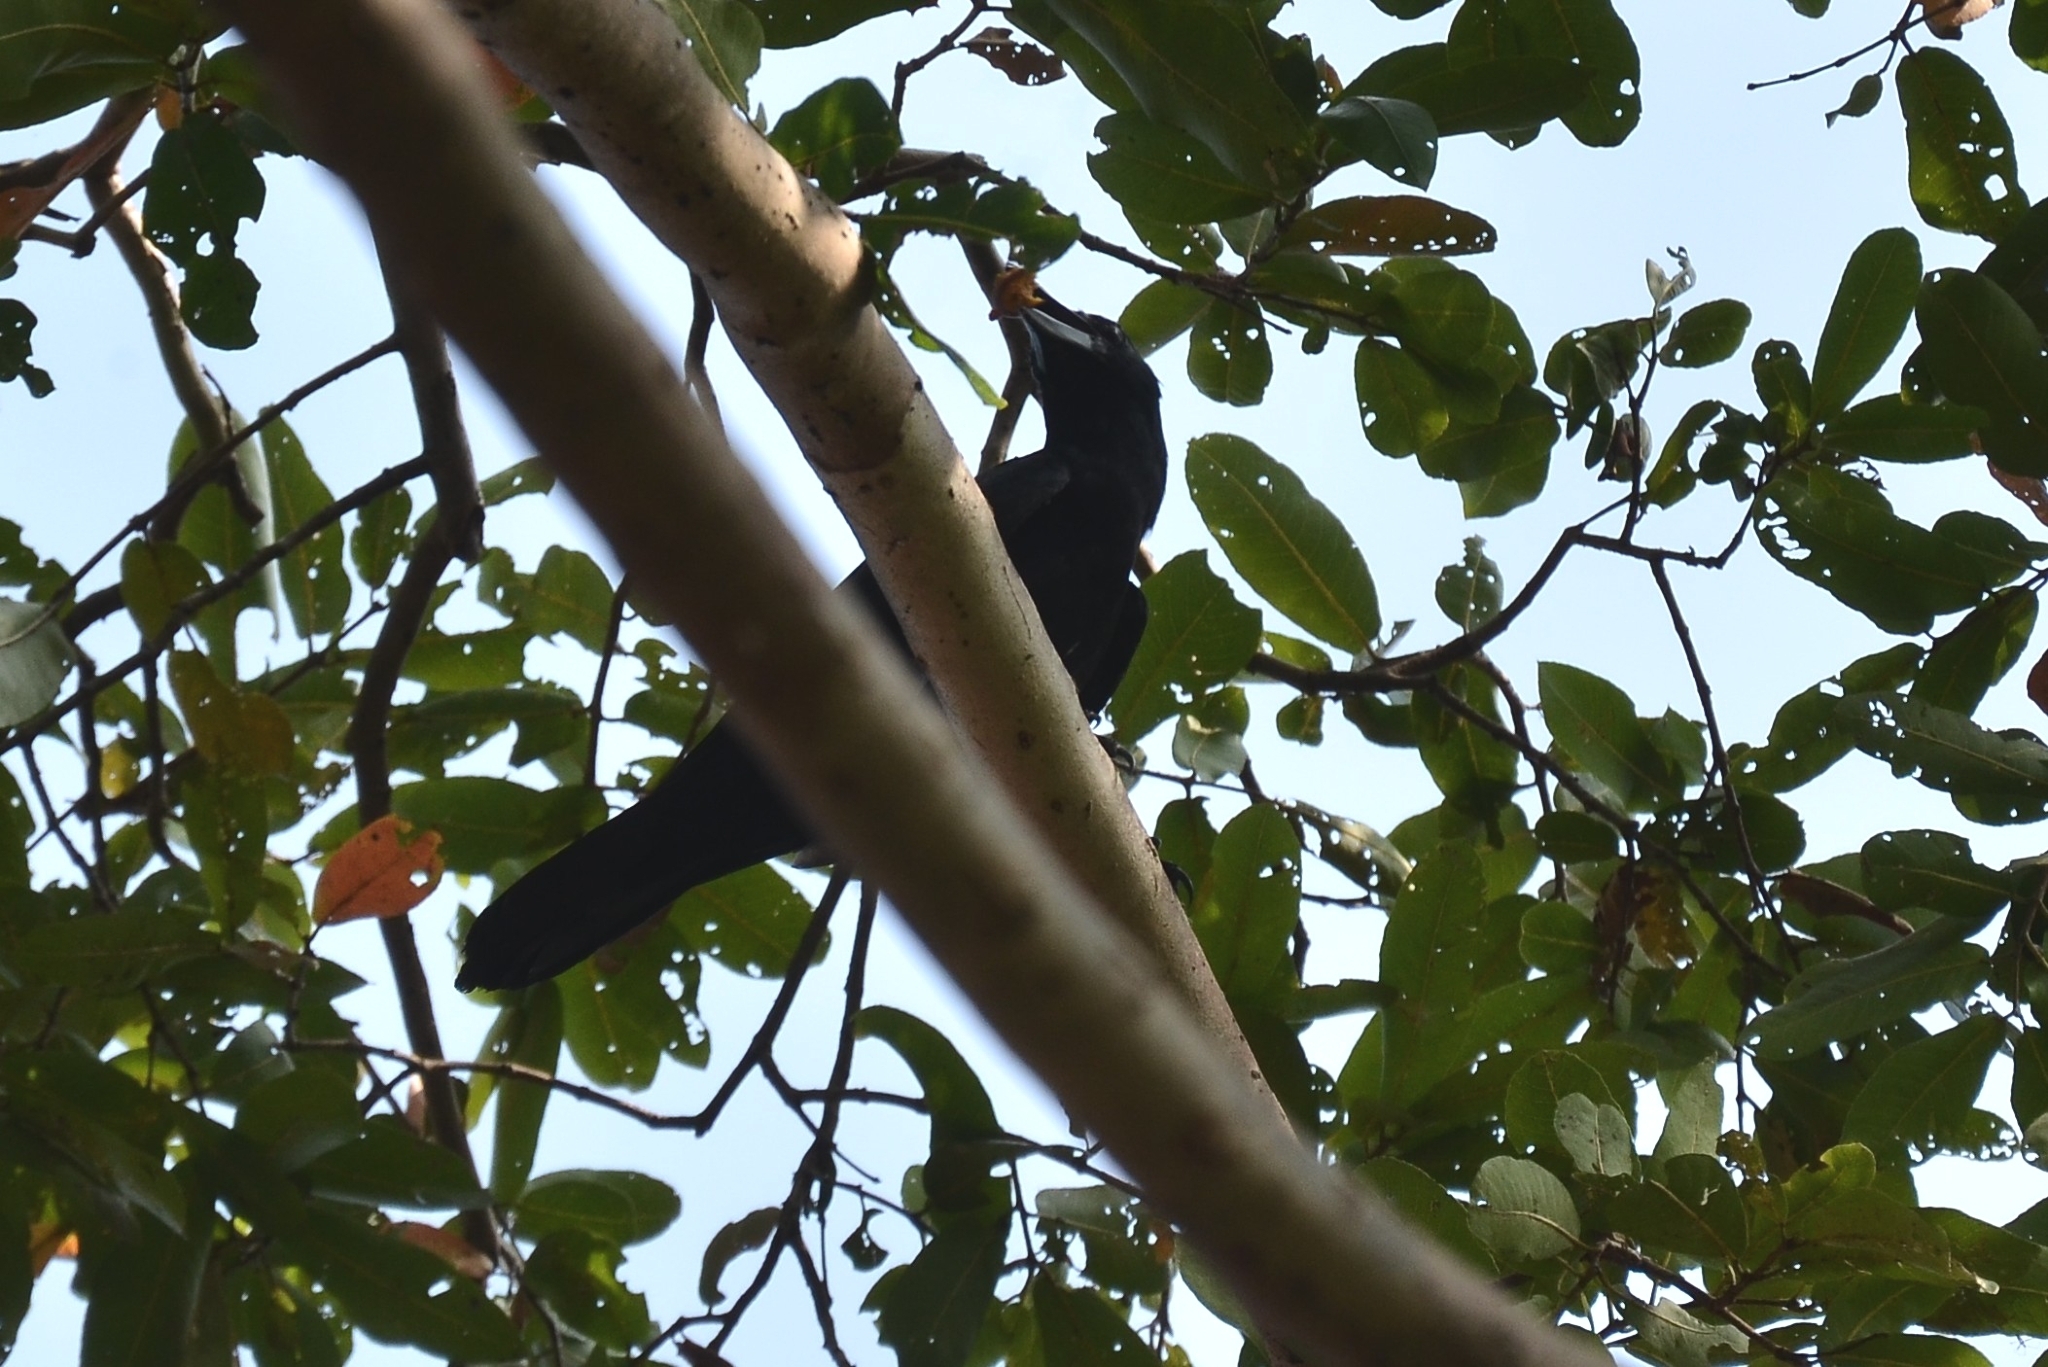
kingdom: Animalia
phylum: Chordata
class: Aves
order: Passeriformes
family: Corvidae
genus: Corvus
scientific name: Corvus macrorhynchos
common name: Large-billed crow
